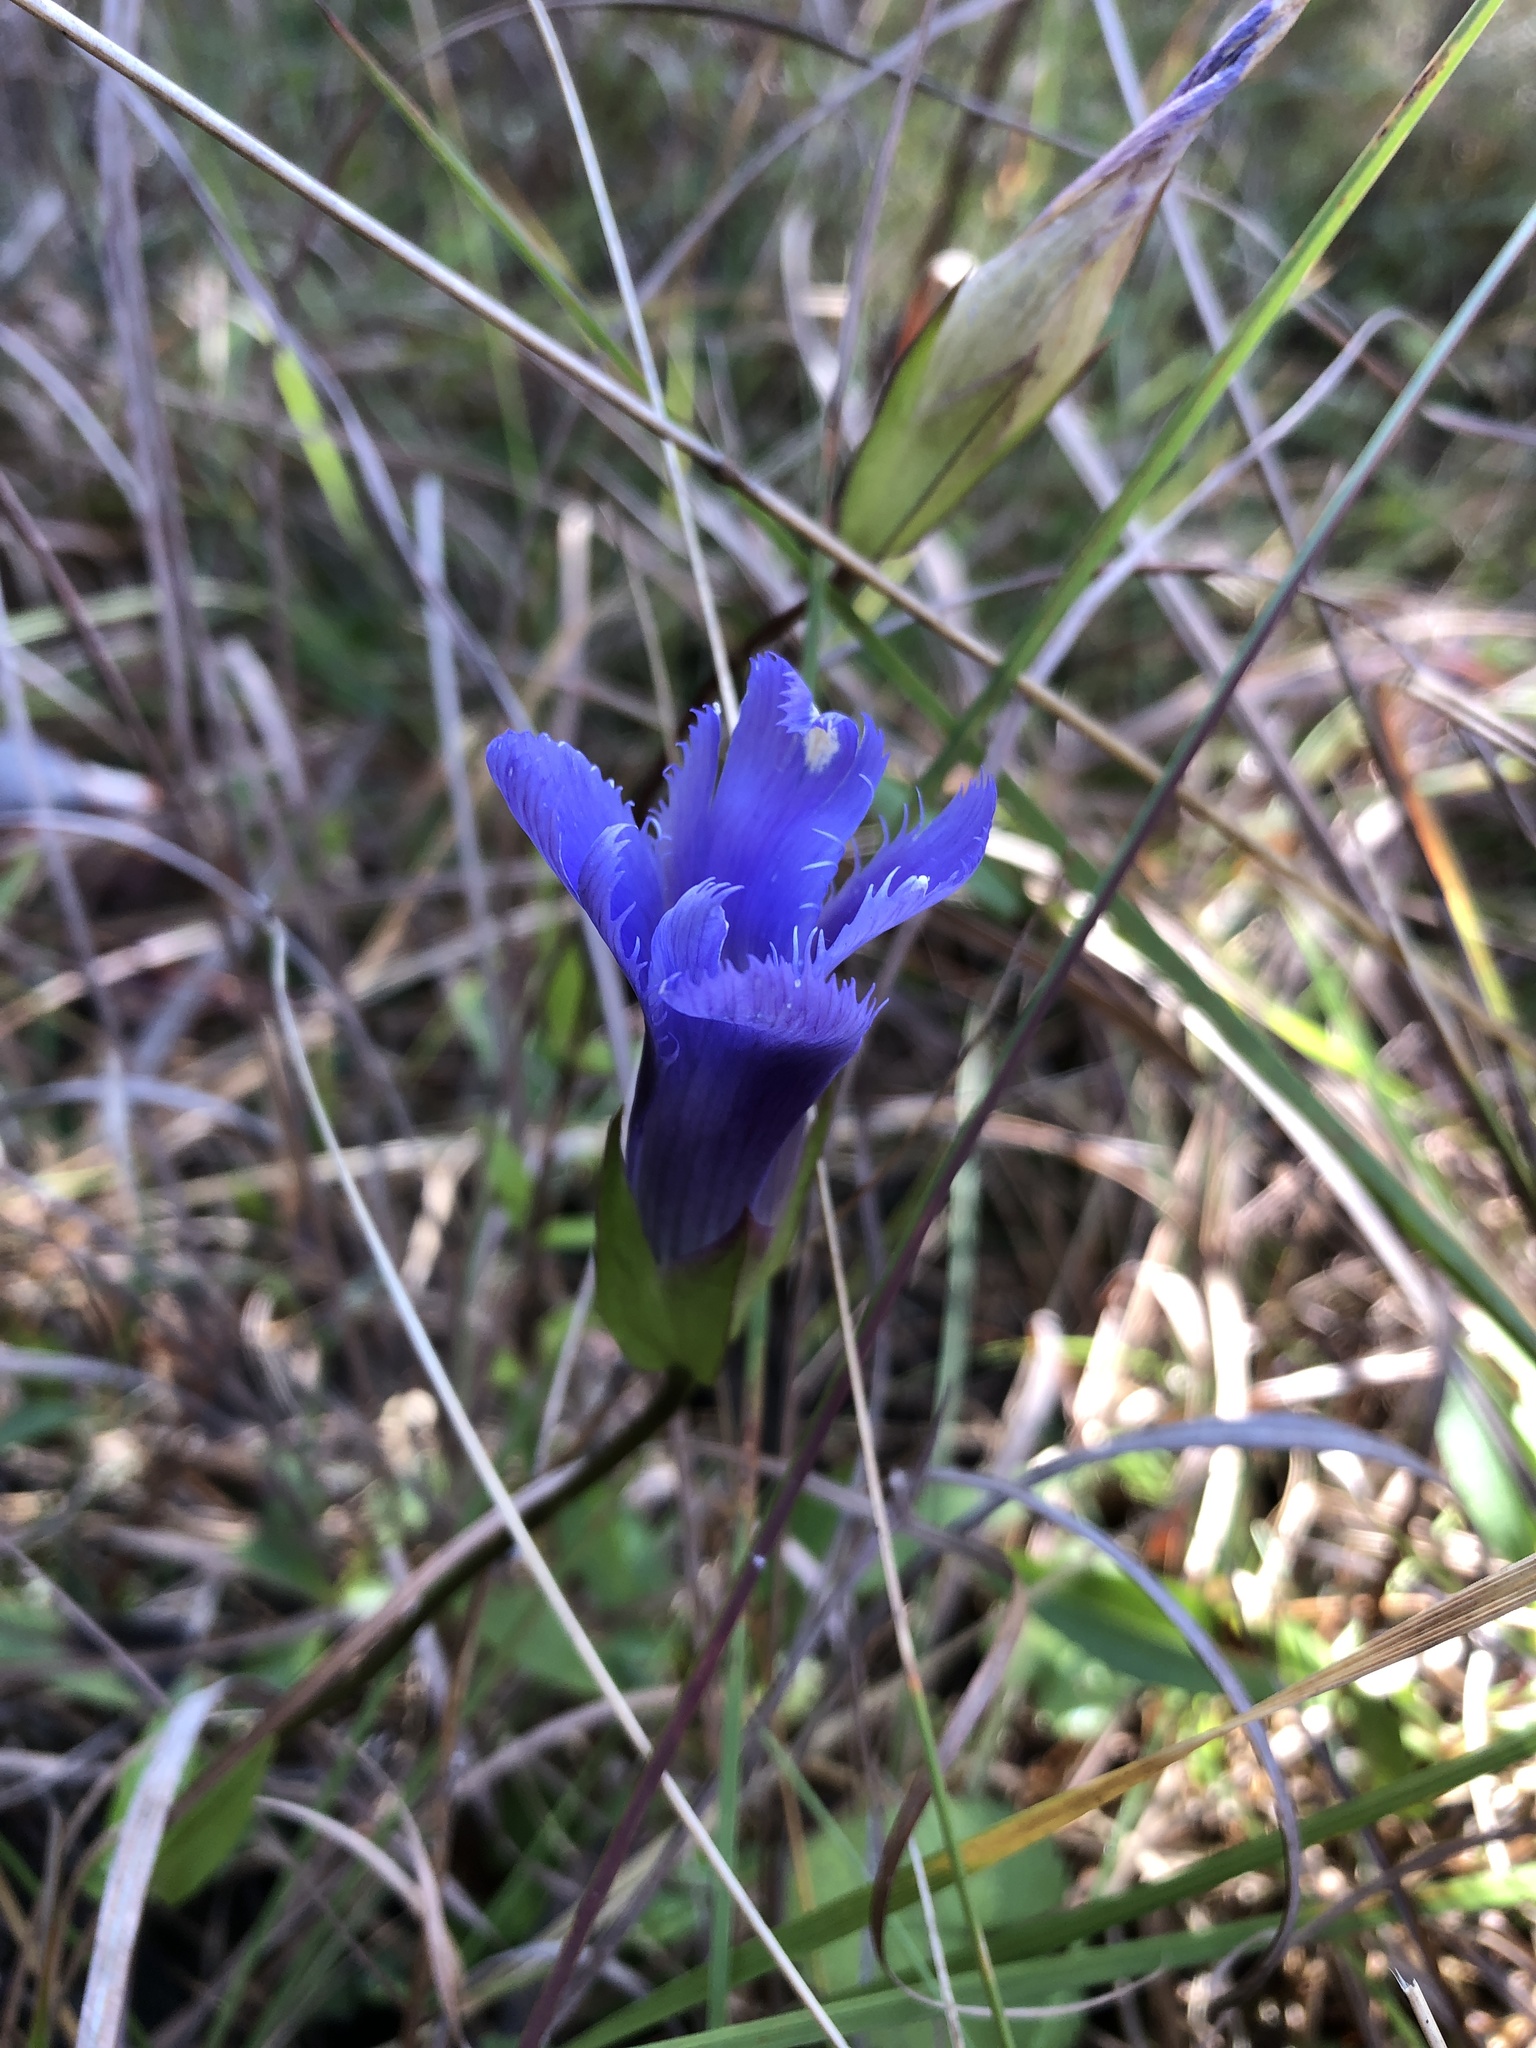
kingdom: Plantae
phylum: Tracheophyta
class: Magnoliopsida
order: Gentianales
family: Gentianaceae
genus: Gentianopsis
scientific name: Gentianopsis crinita
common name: Fringed-gentian
